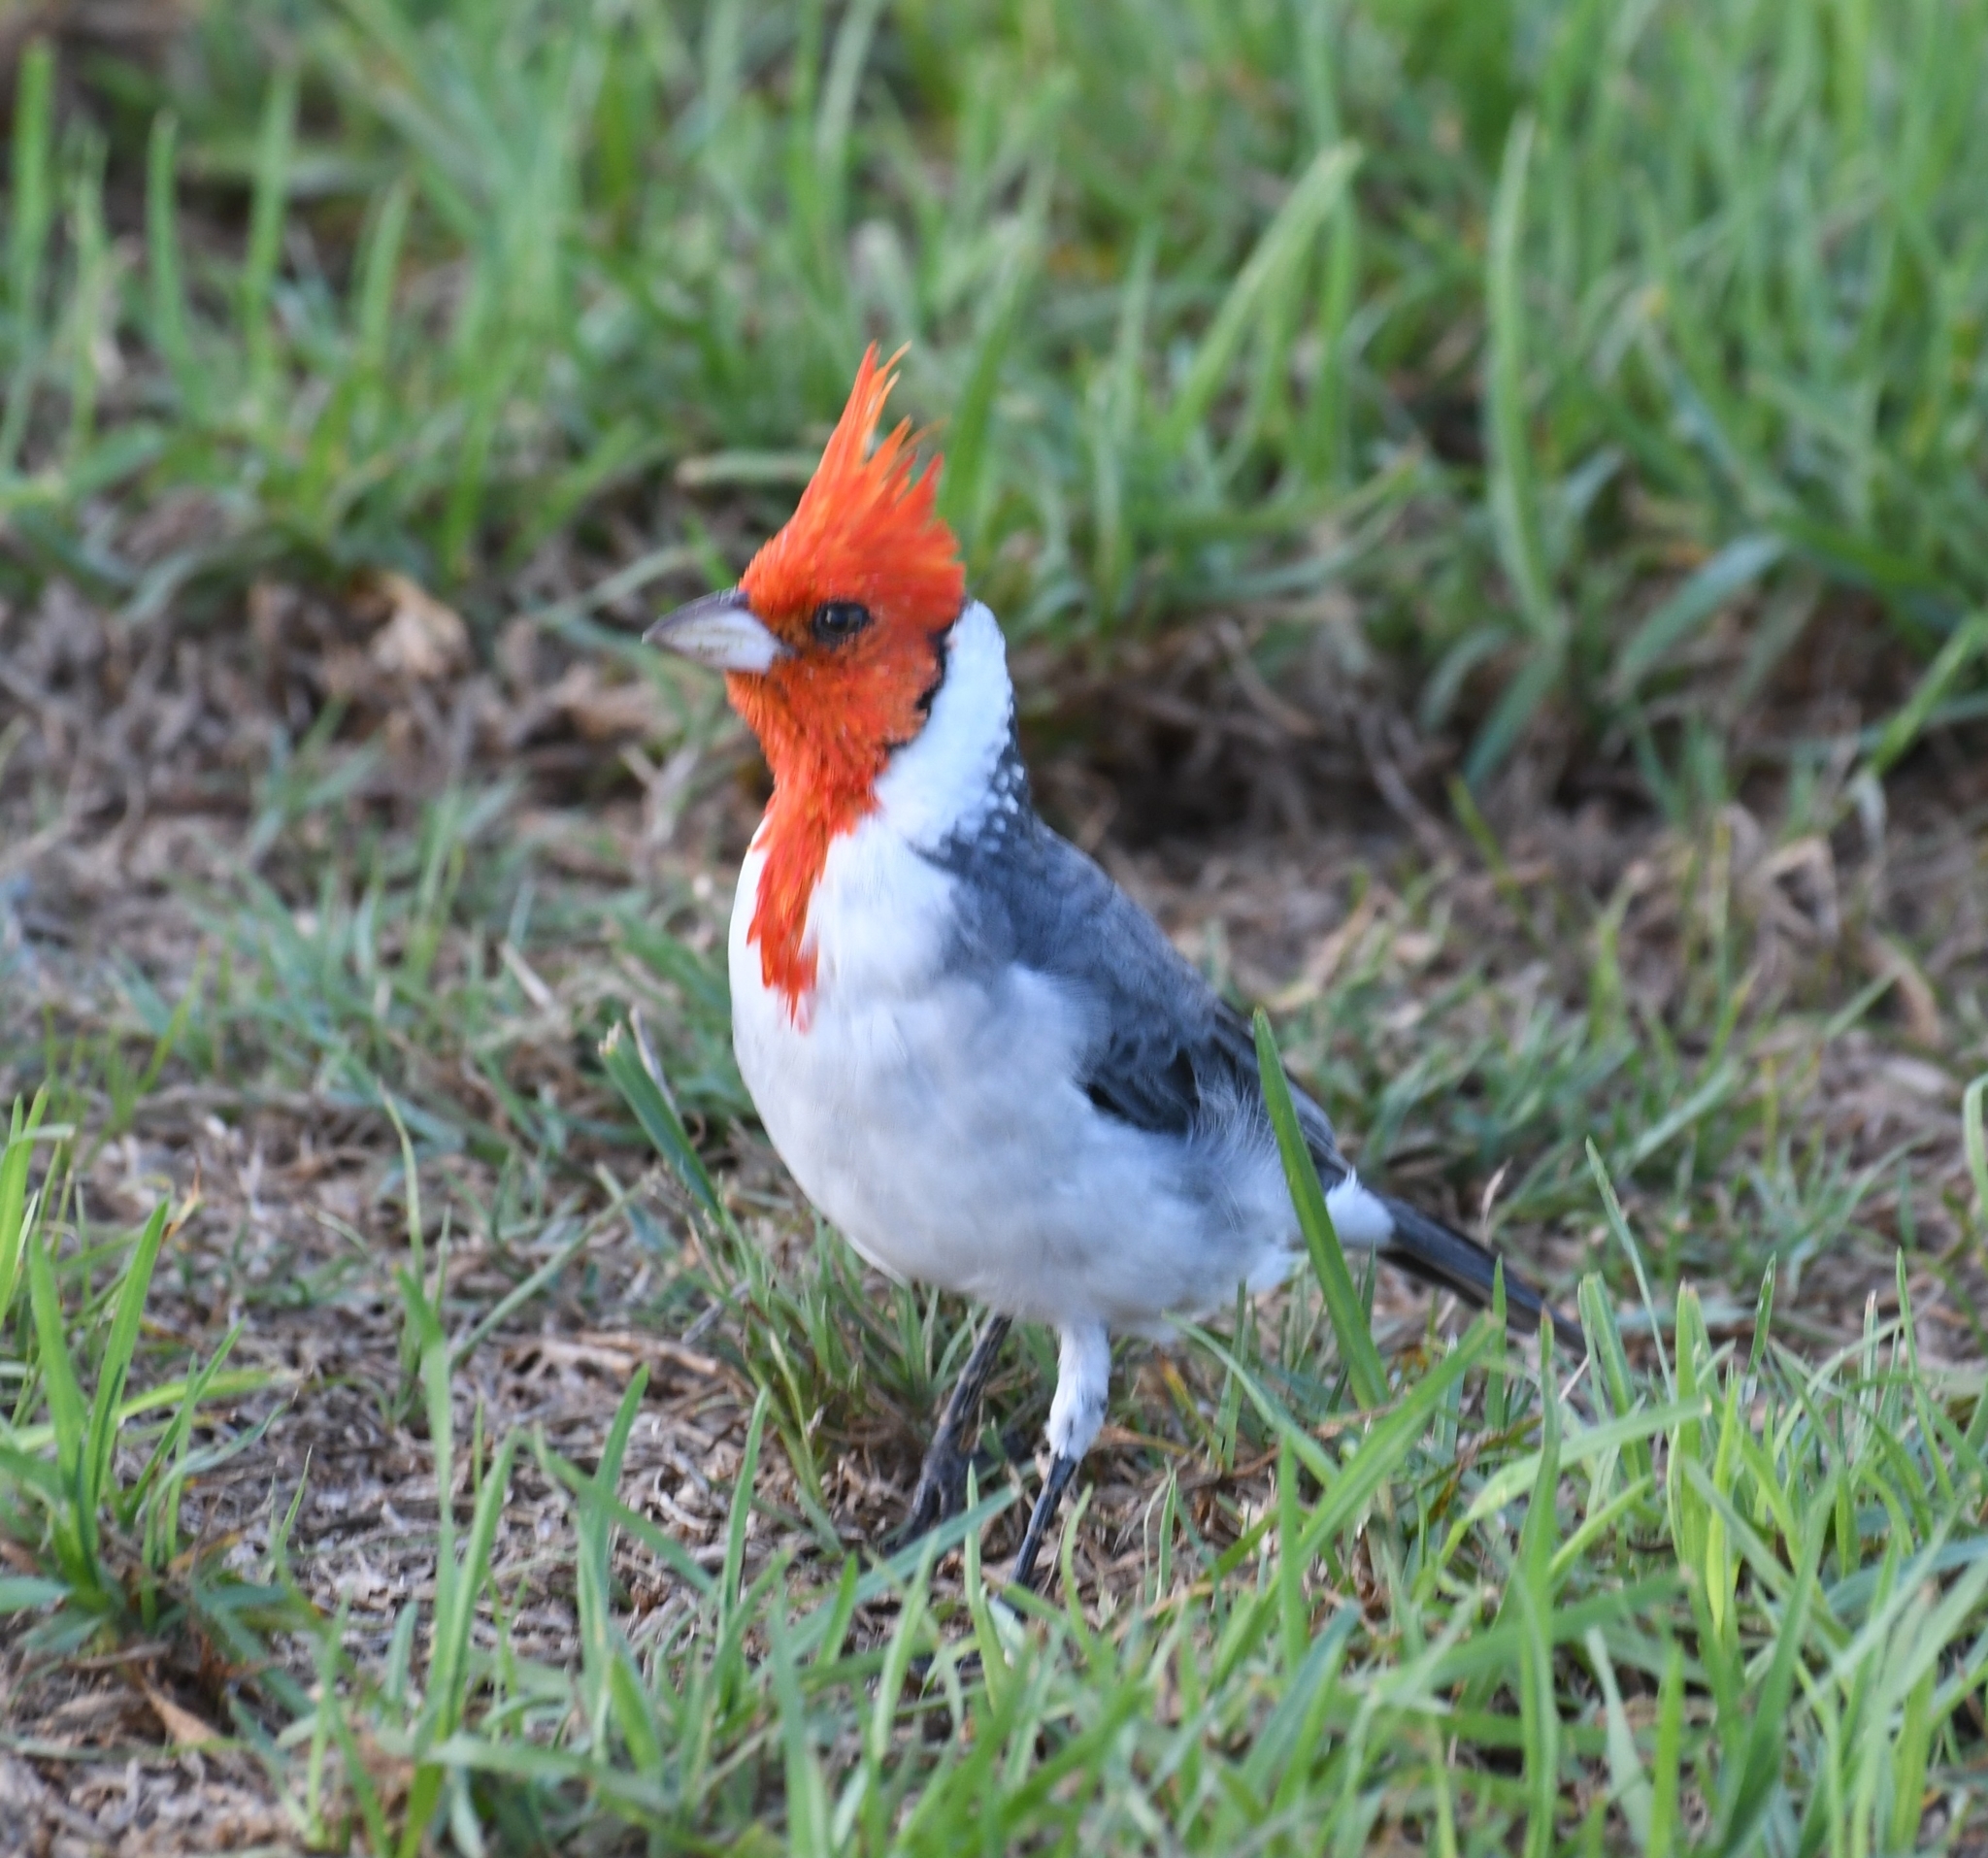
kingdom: Animalia
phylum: Chordata
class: Aves
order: Passeriformes
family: Thraupidae
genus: Paroaria
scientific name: Paroaria coronata
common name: Red-crested cardinal
